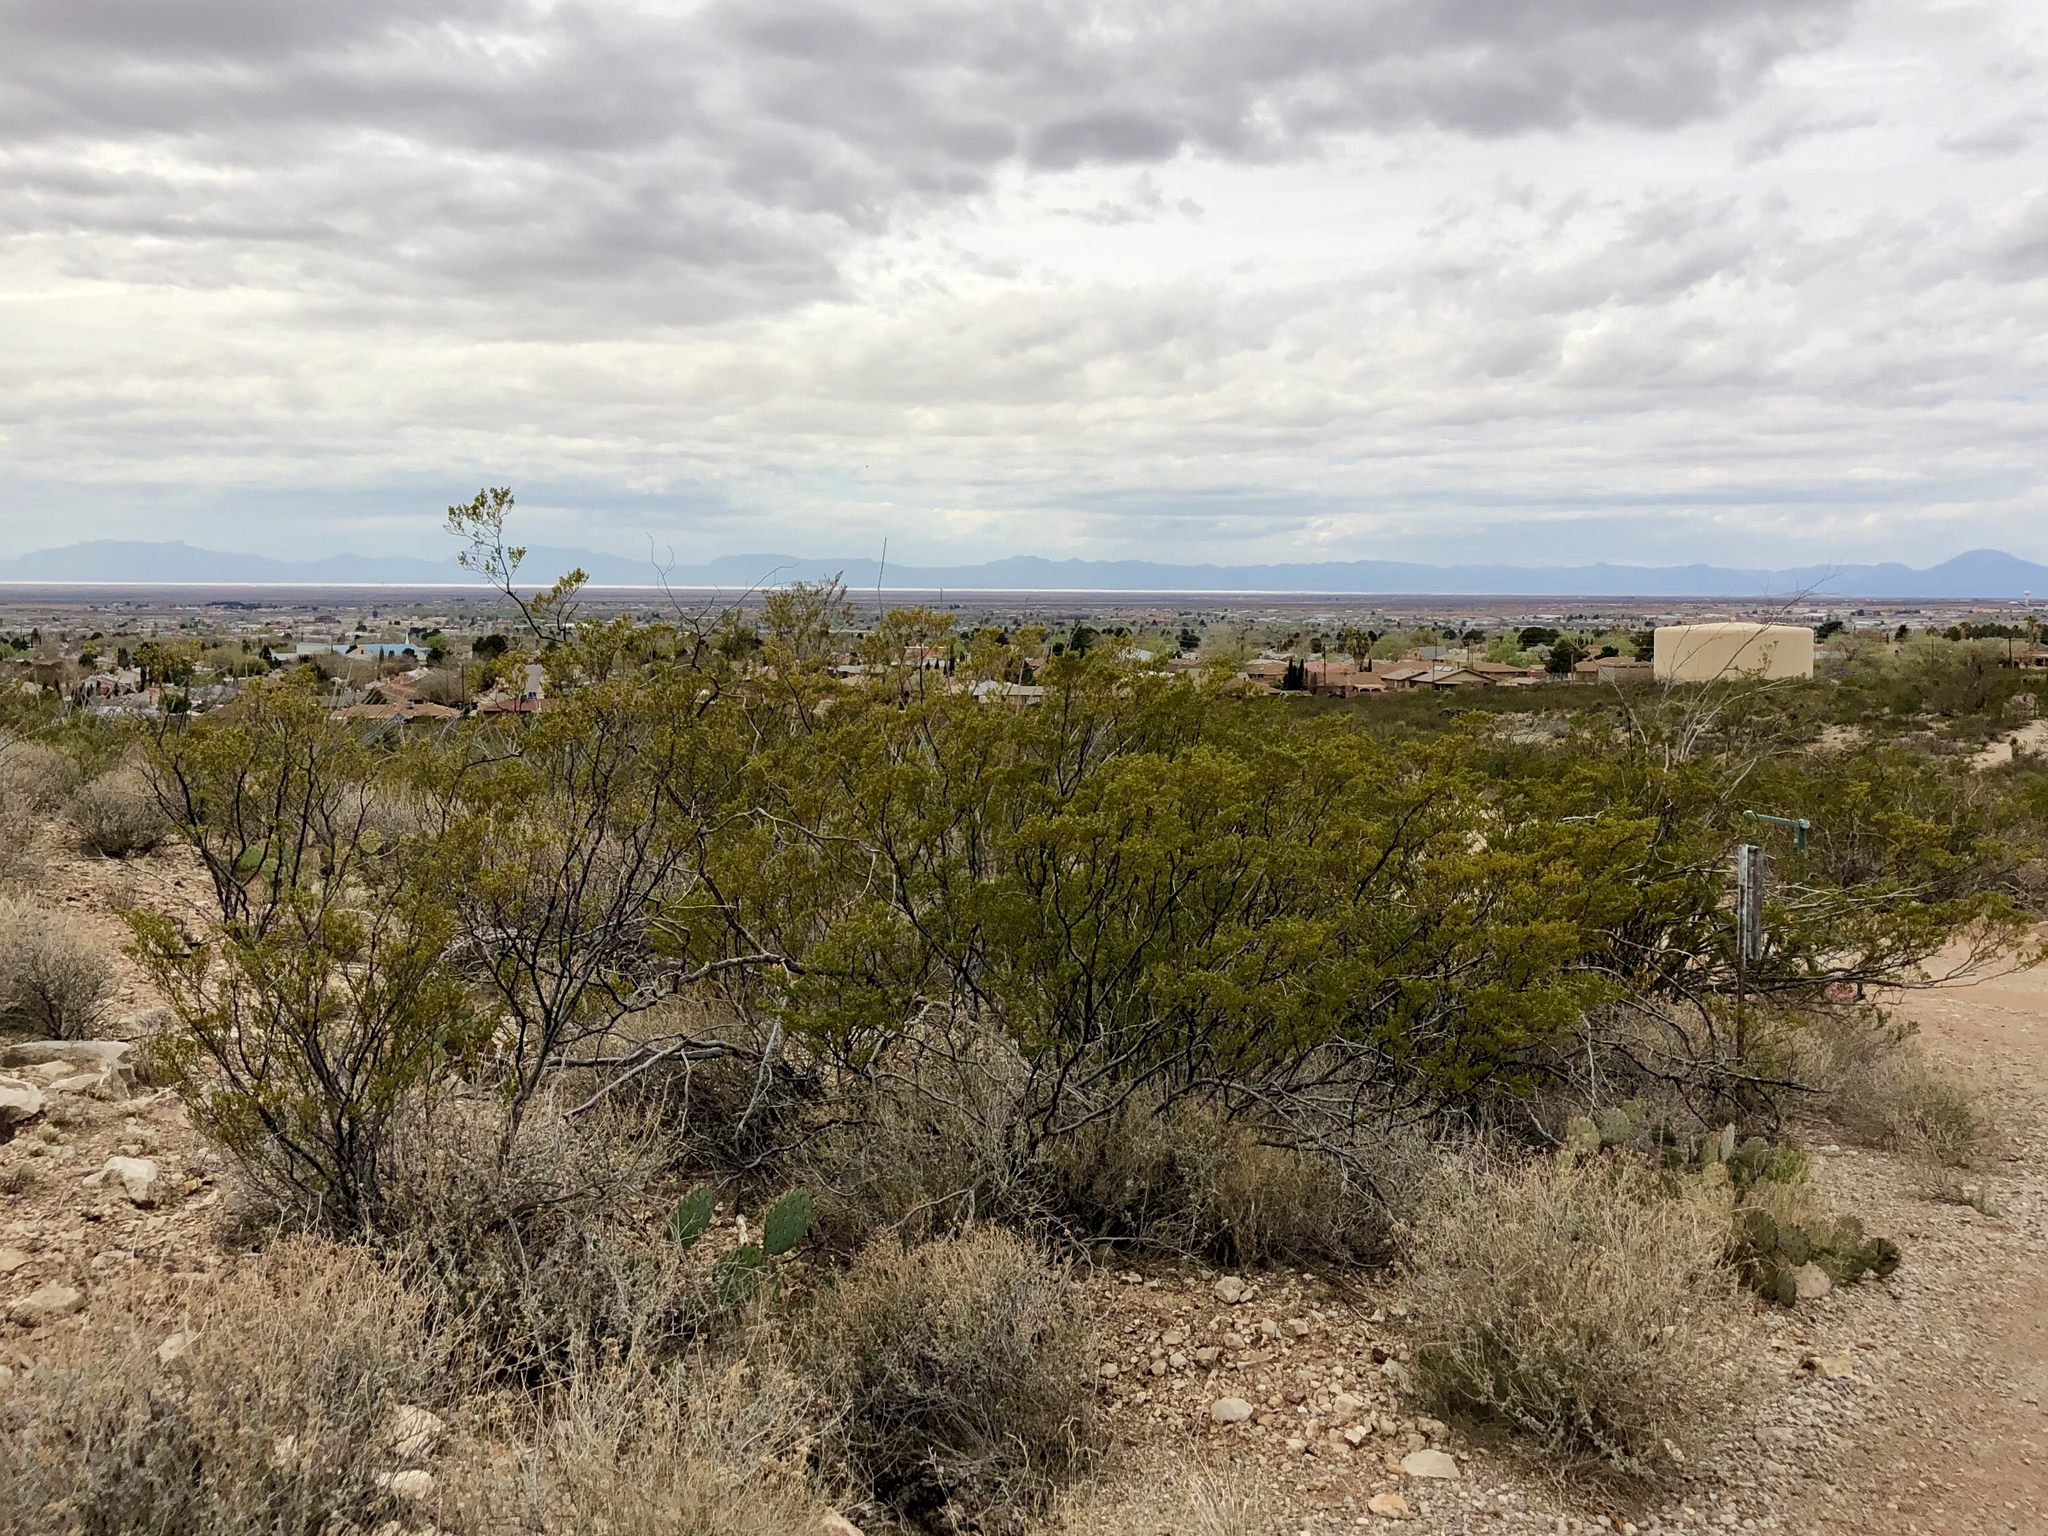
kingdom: Plantae
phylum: Tracheophyta
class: Magnoliopsida
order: Zygophyllales
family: Zygophyllaceae
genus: Larrea
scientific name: Larrea tridentata
